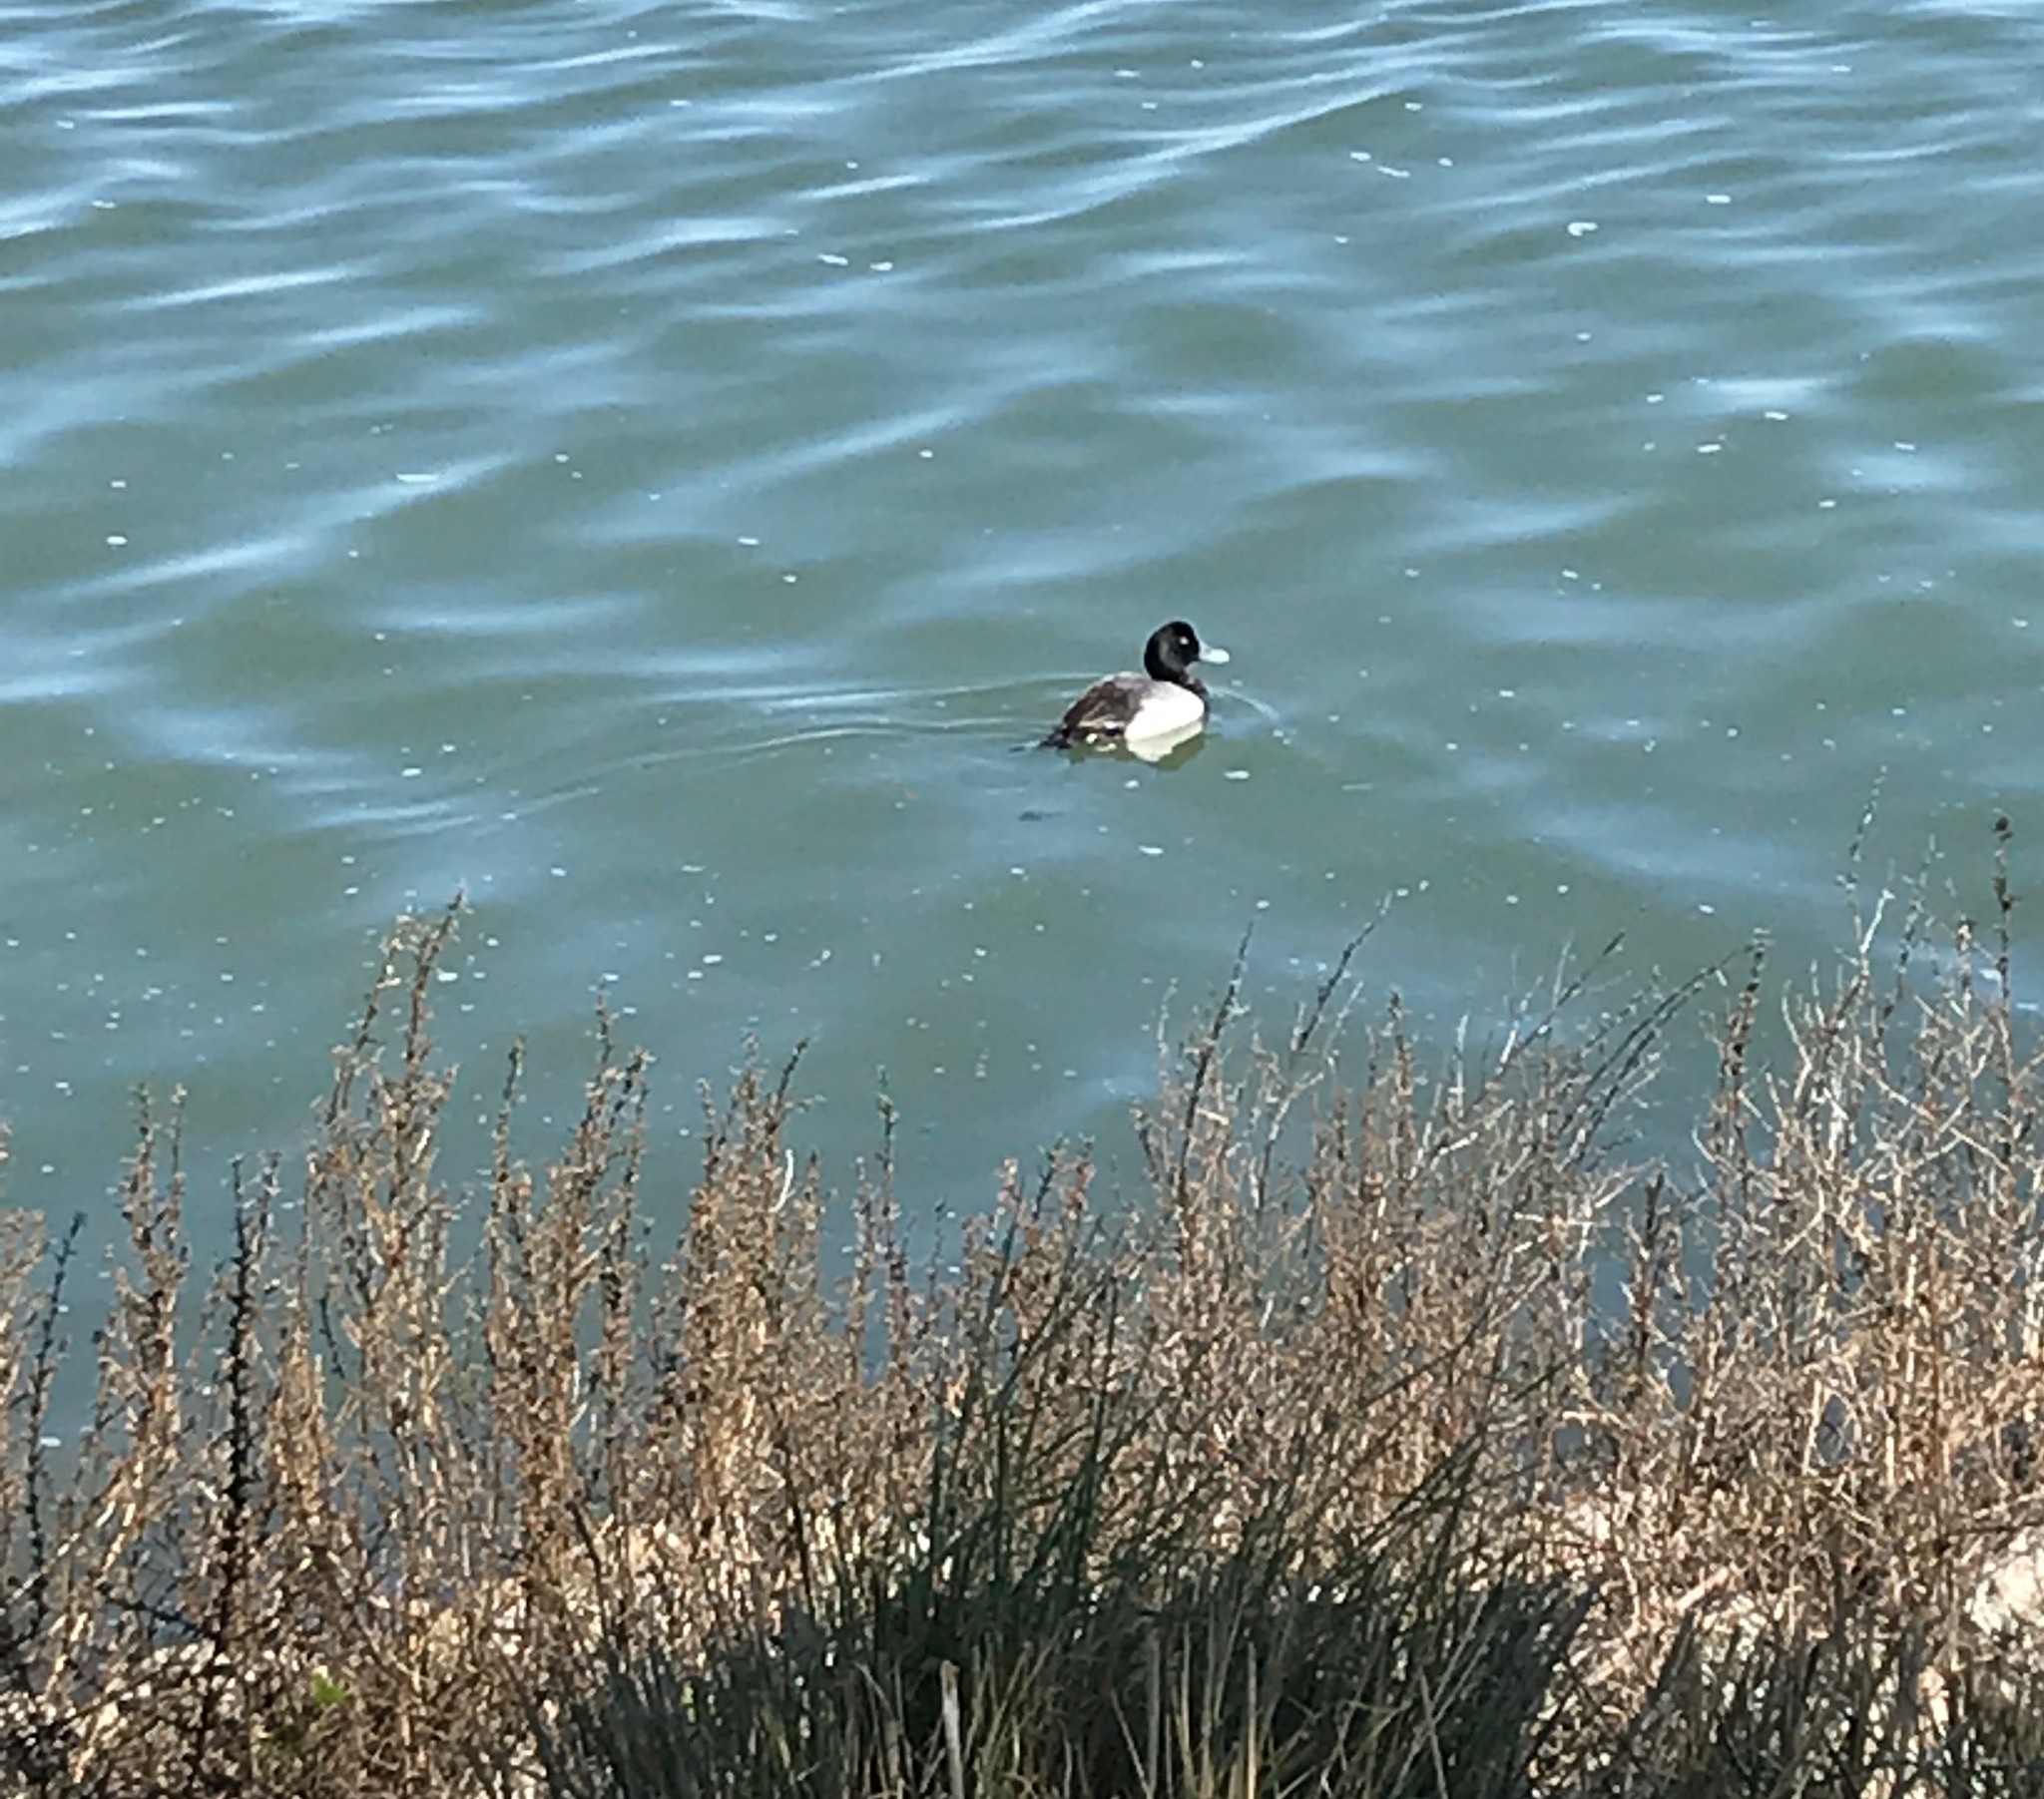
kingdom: Animalia
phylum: Chordata
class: Aves
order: Anseriformes
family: Anatidae
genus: Aythya
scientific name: Aythya marila
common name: Greater scaup
